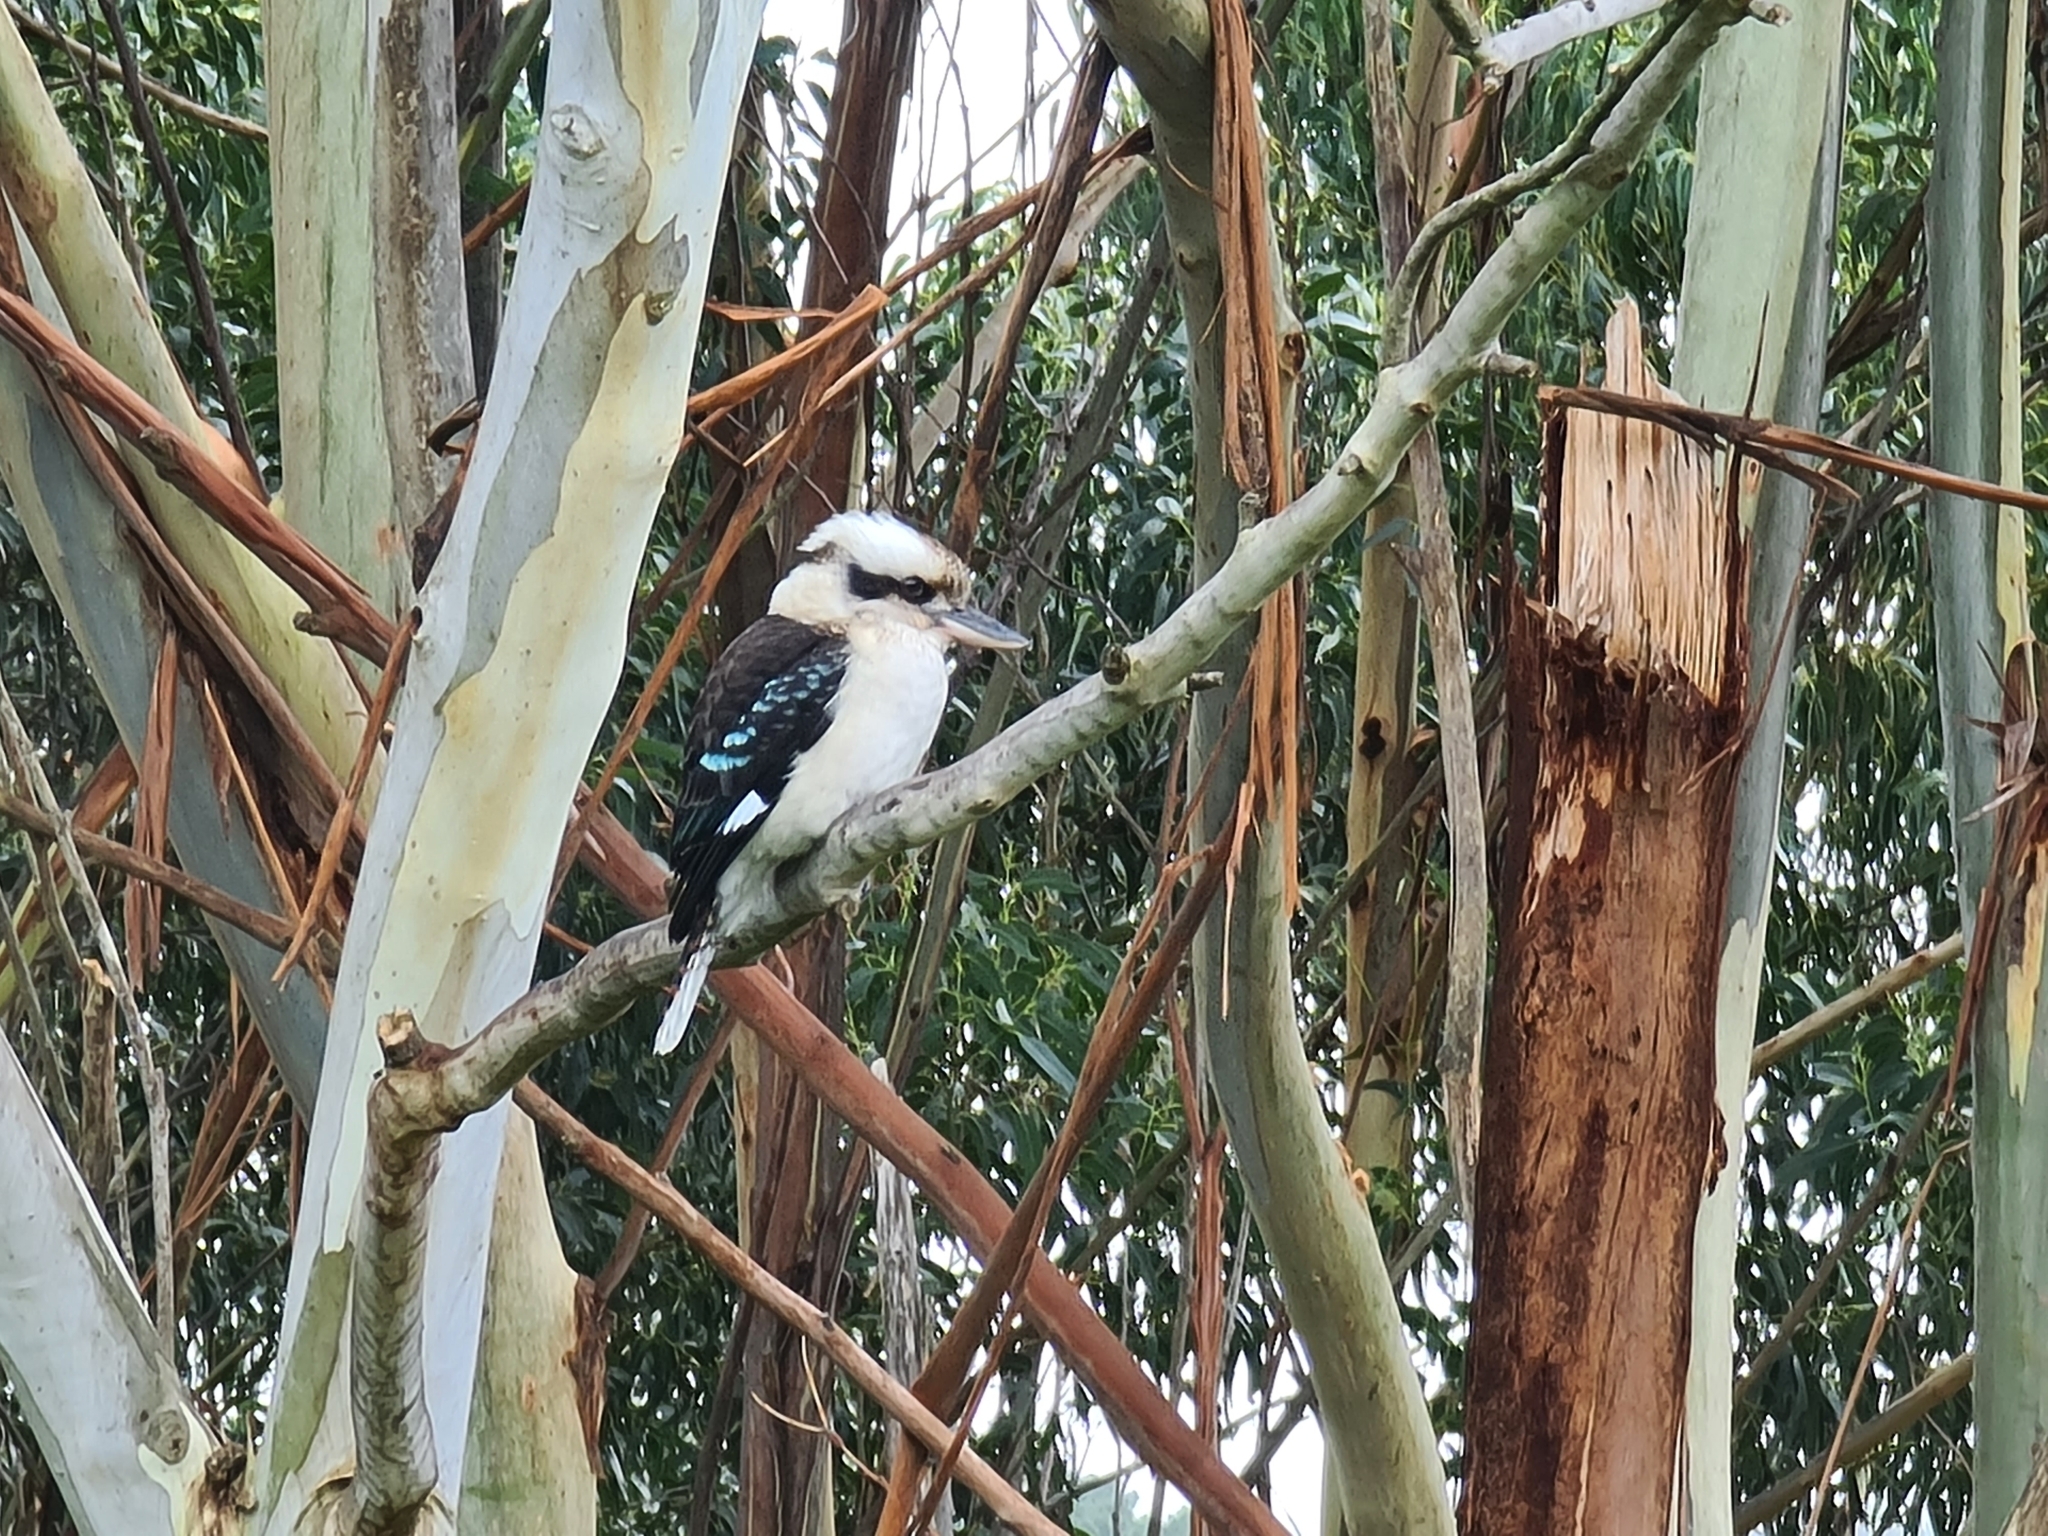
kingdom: Animalia
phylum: Chordata
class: Aves
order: Coraciiformes
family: Alcedinidae
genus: Dacelo
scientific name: Dacelo novaeguineae
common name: Laughing kookaburra
